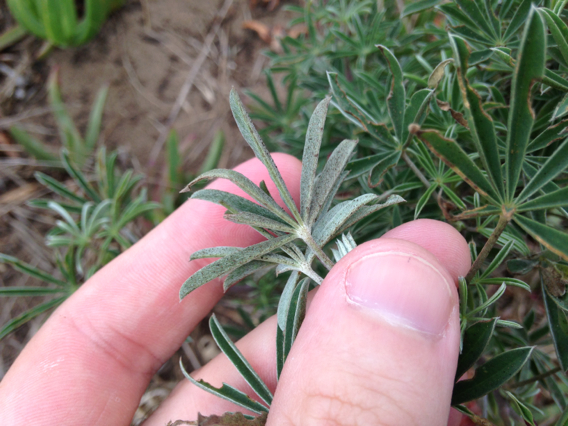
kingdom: Plantae
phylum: Tracheophyta
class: Magnoliopsida
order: Fabales
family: Fabaceae
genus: Lupinus
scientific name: Lupinus arboreus
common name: Yellow bush lupine
